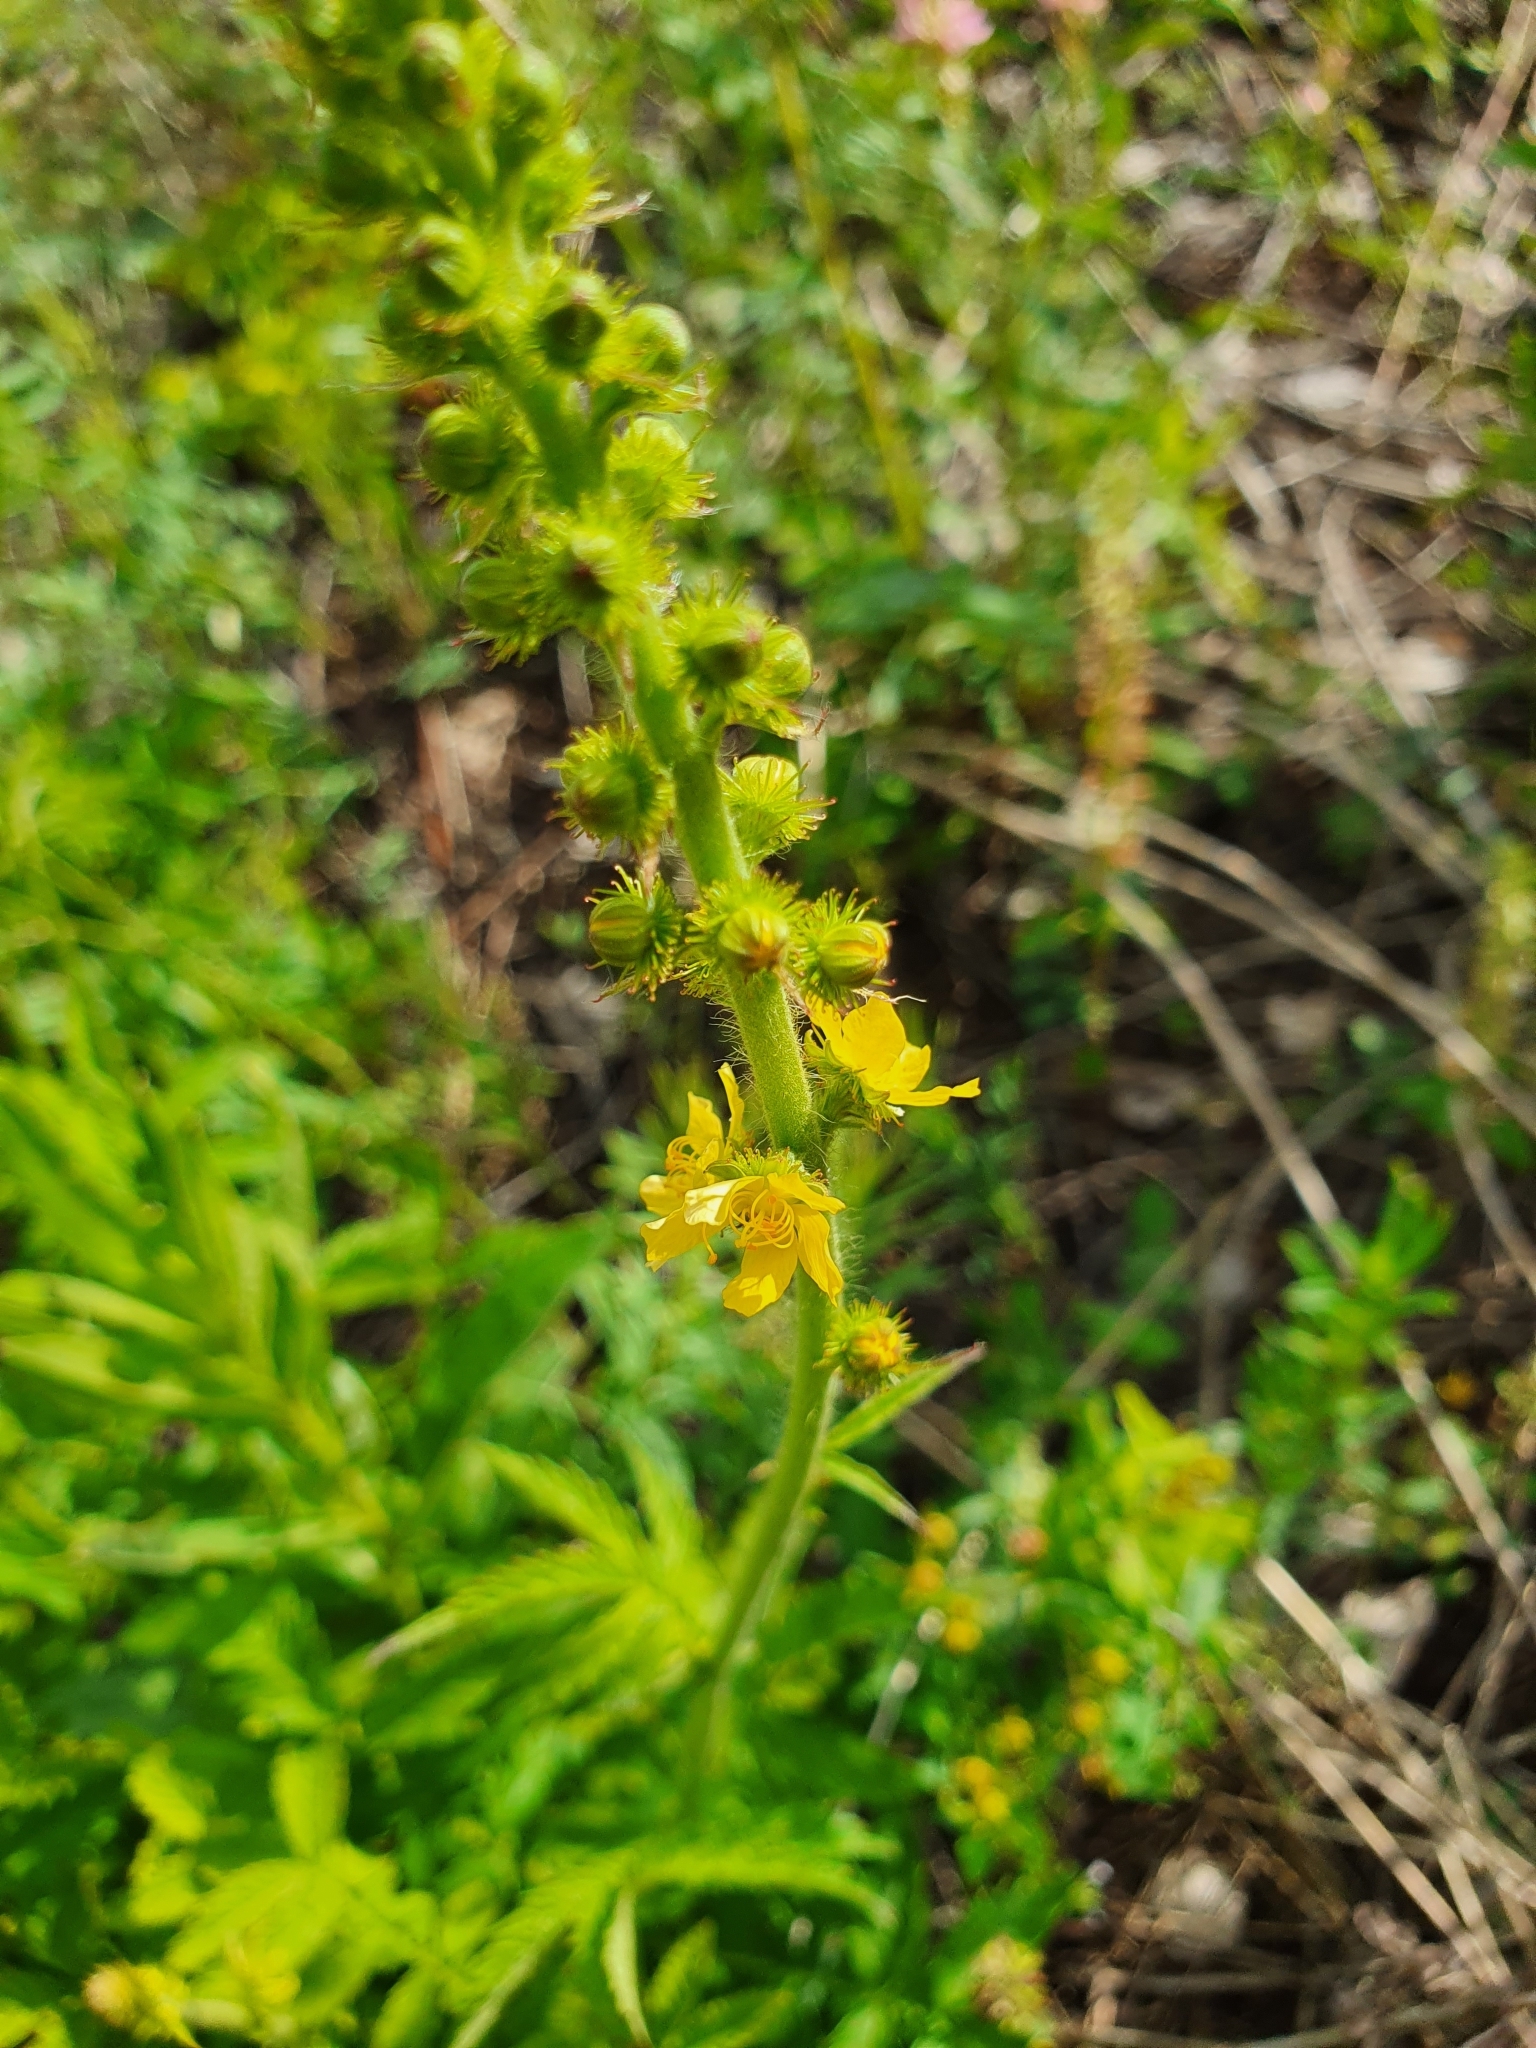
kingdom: Plantae
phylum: Tracheophyta
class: Magnoliopsida
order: Rosales
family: Rosaceae
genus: Agrimonia
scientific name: Agrimonia eupatoria
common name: Agrimony
